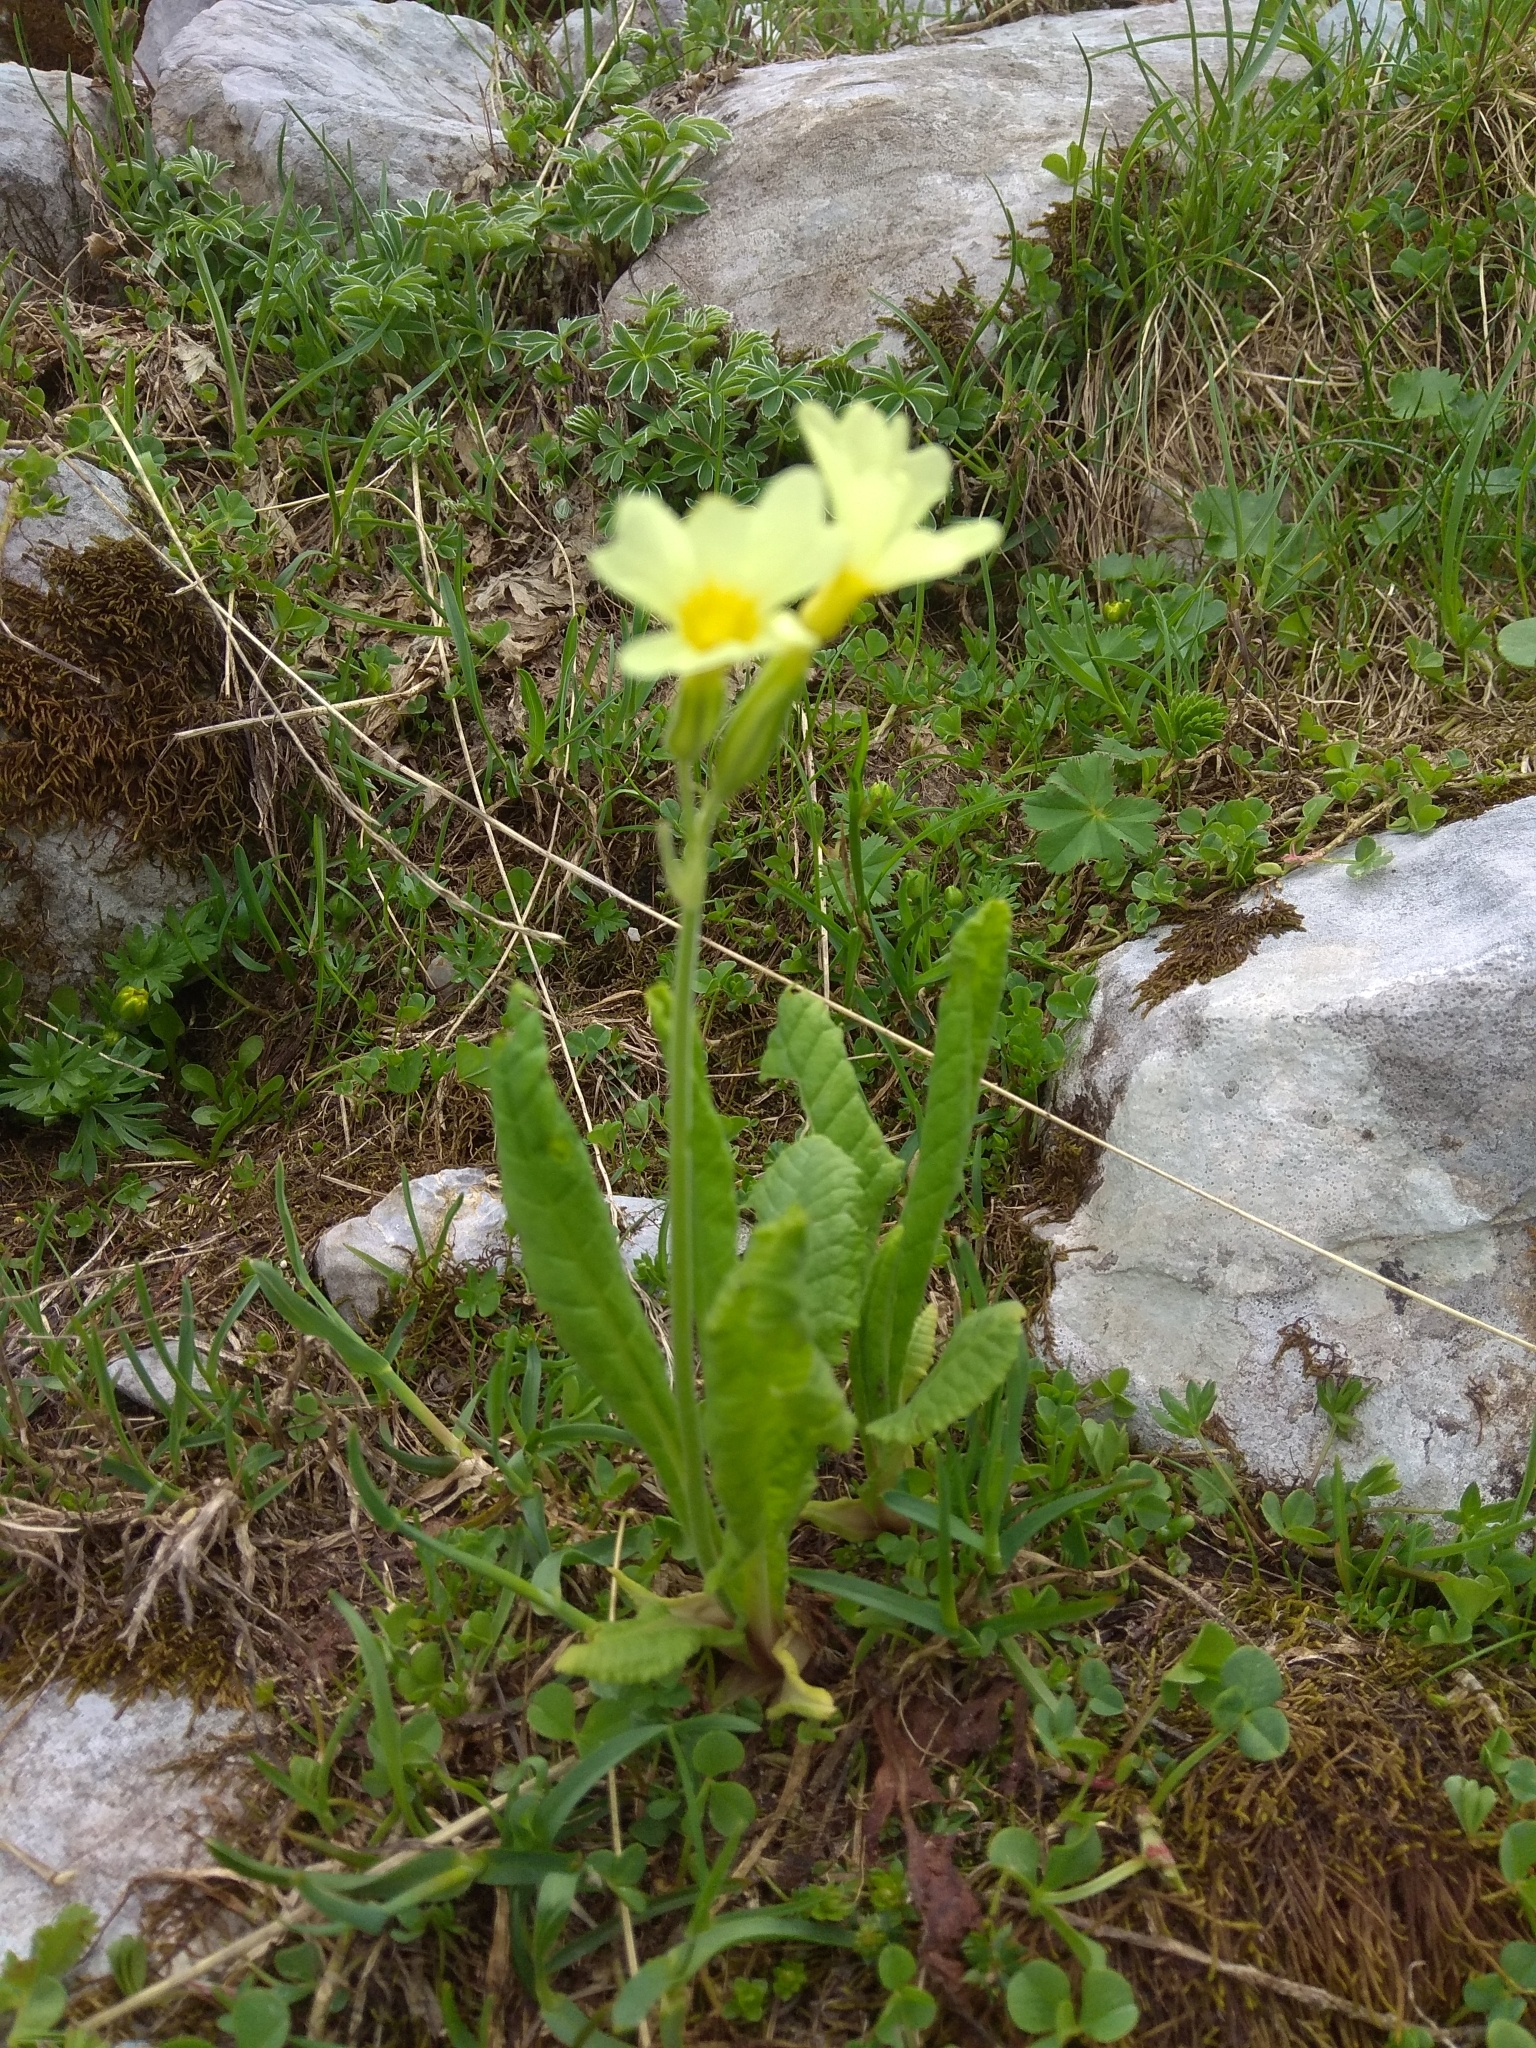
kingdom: Plantae
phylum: Tracheophyta
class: Magnoliopsida
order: Ericales
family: Primulaceae
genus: Primula
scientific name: Primula elatior
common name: Oxlip
